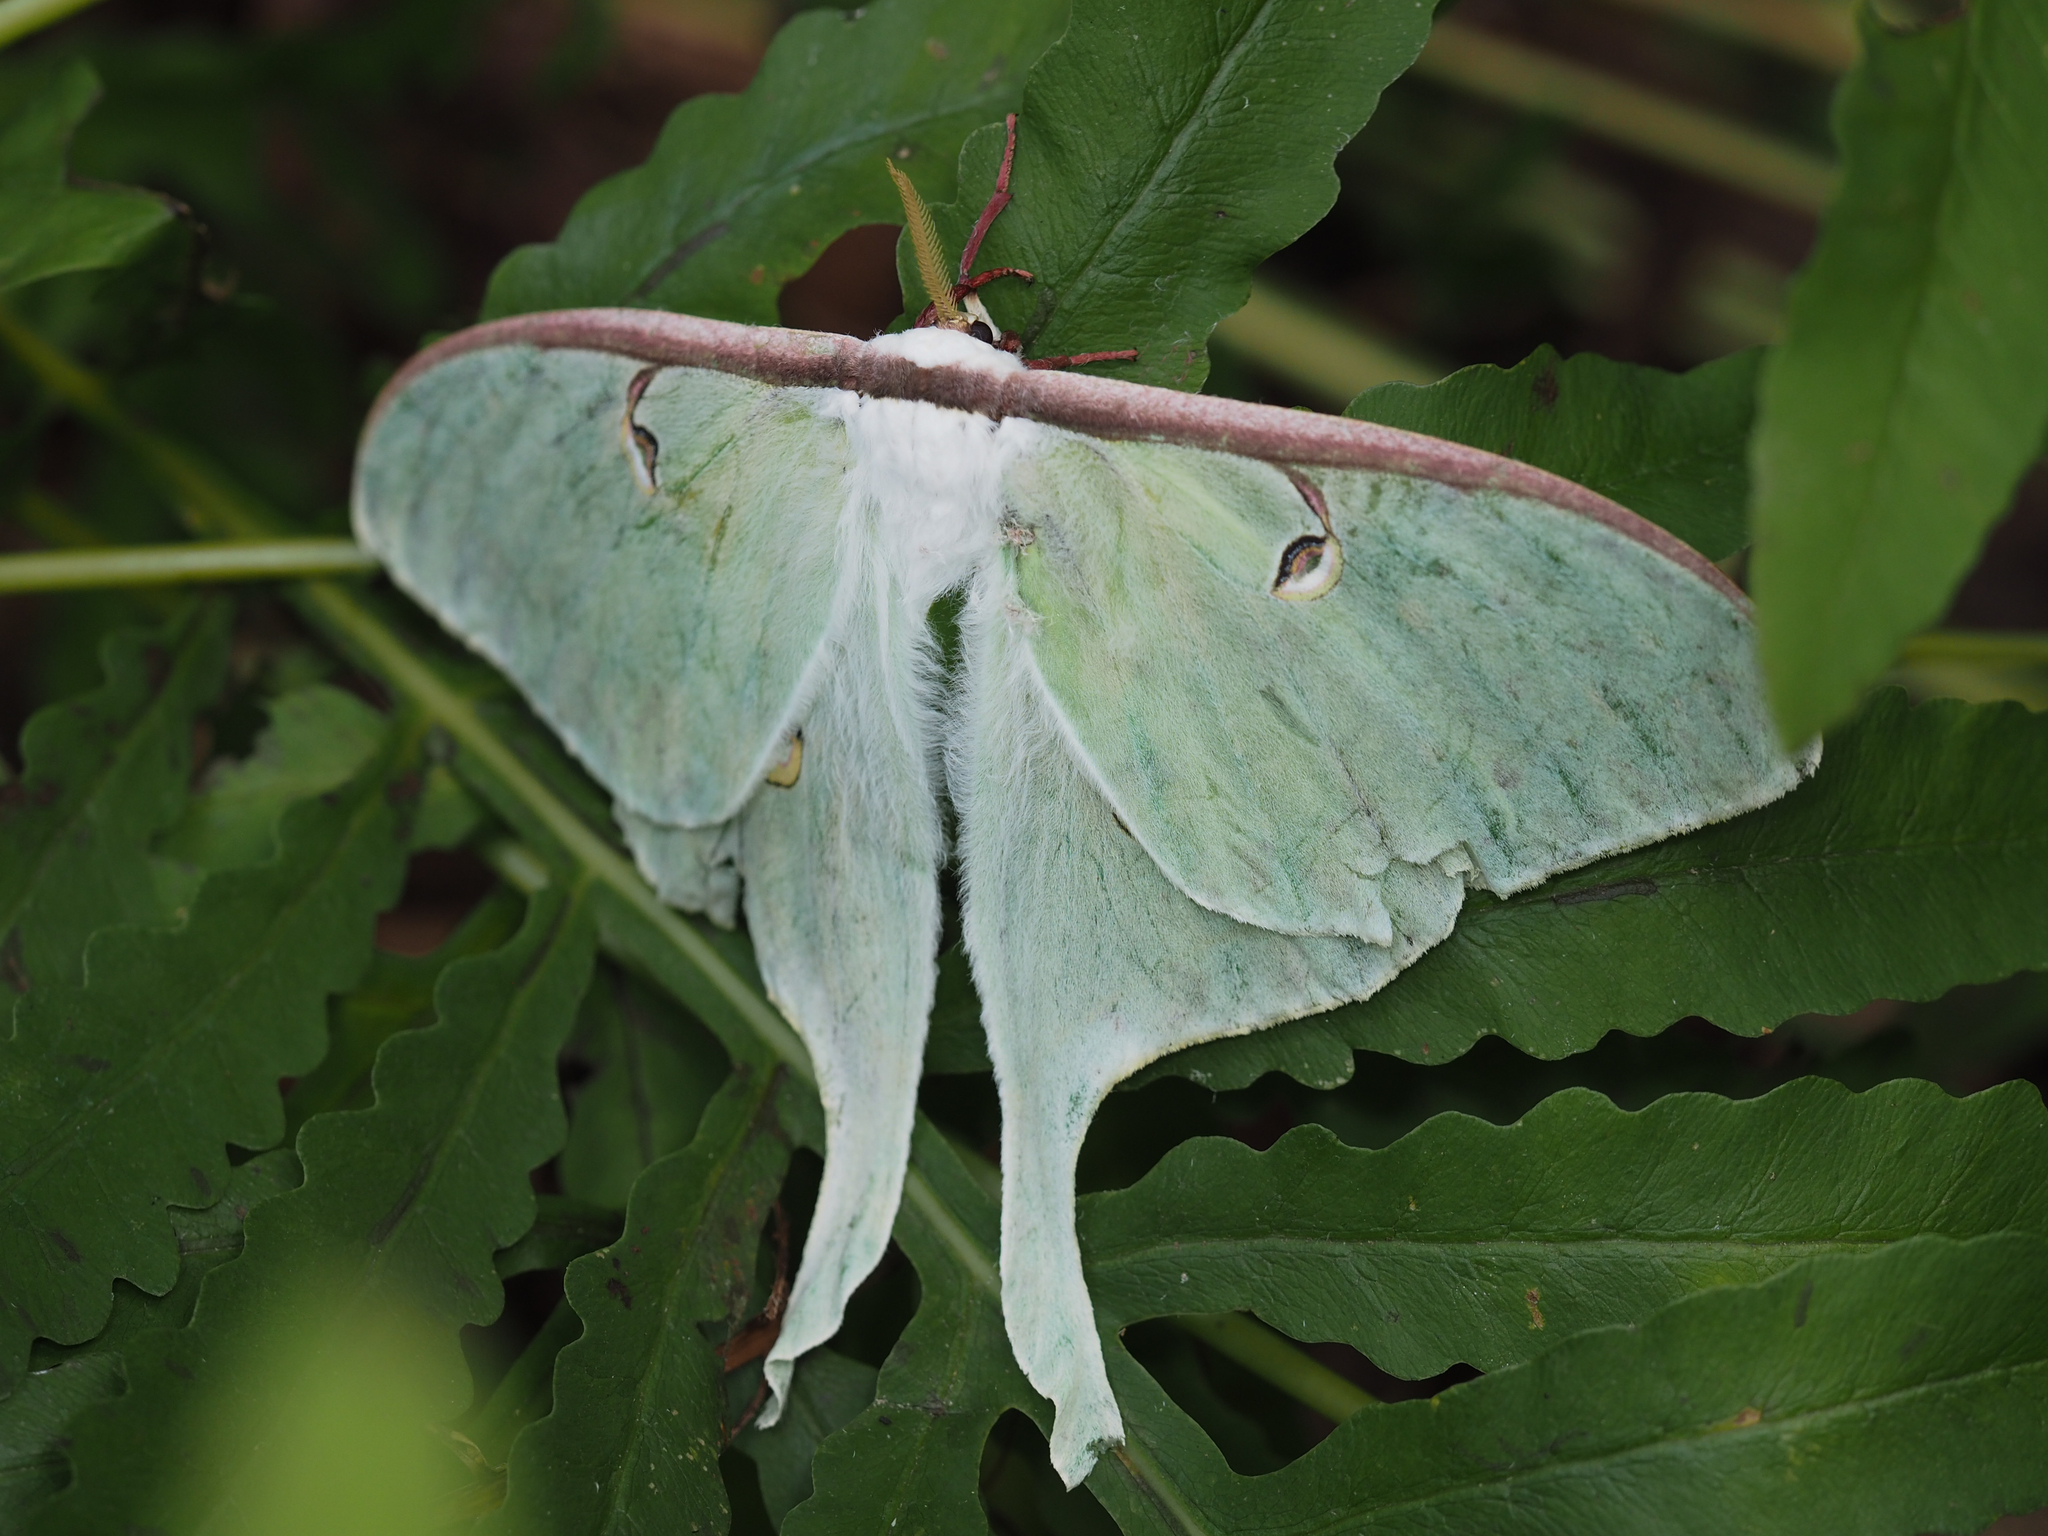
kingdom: Animalia
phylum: Arthropoda
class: Insecta
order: Lepidoptera
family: Saturniidae
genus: Actias
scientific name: Actias luna
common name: Luna moth
